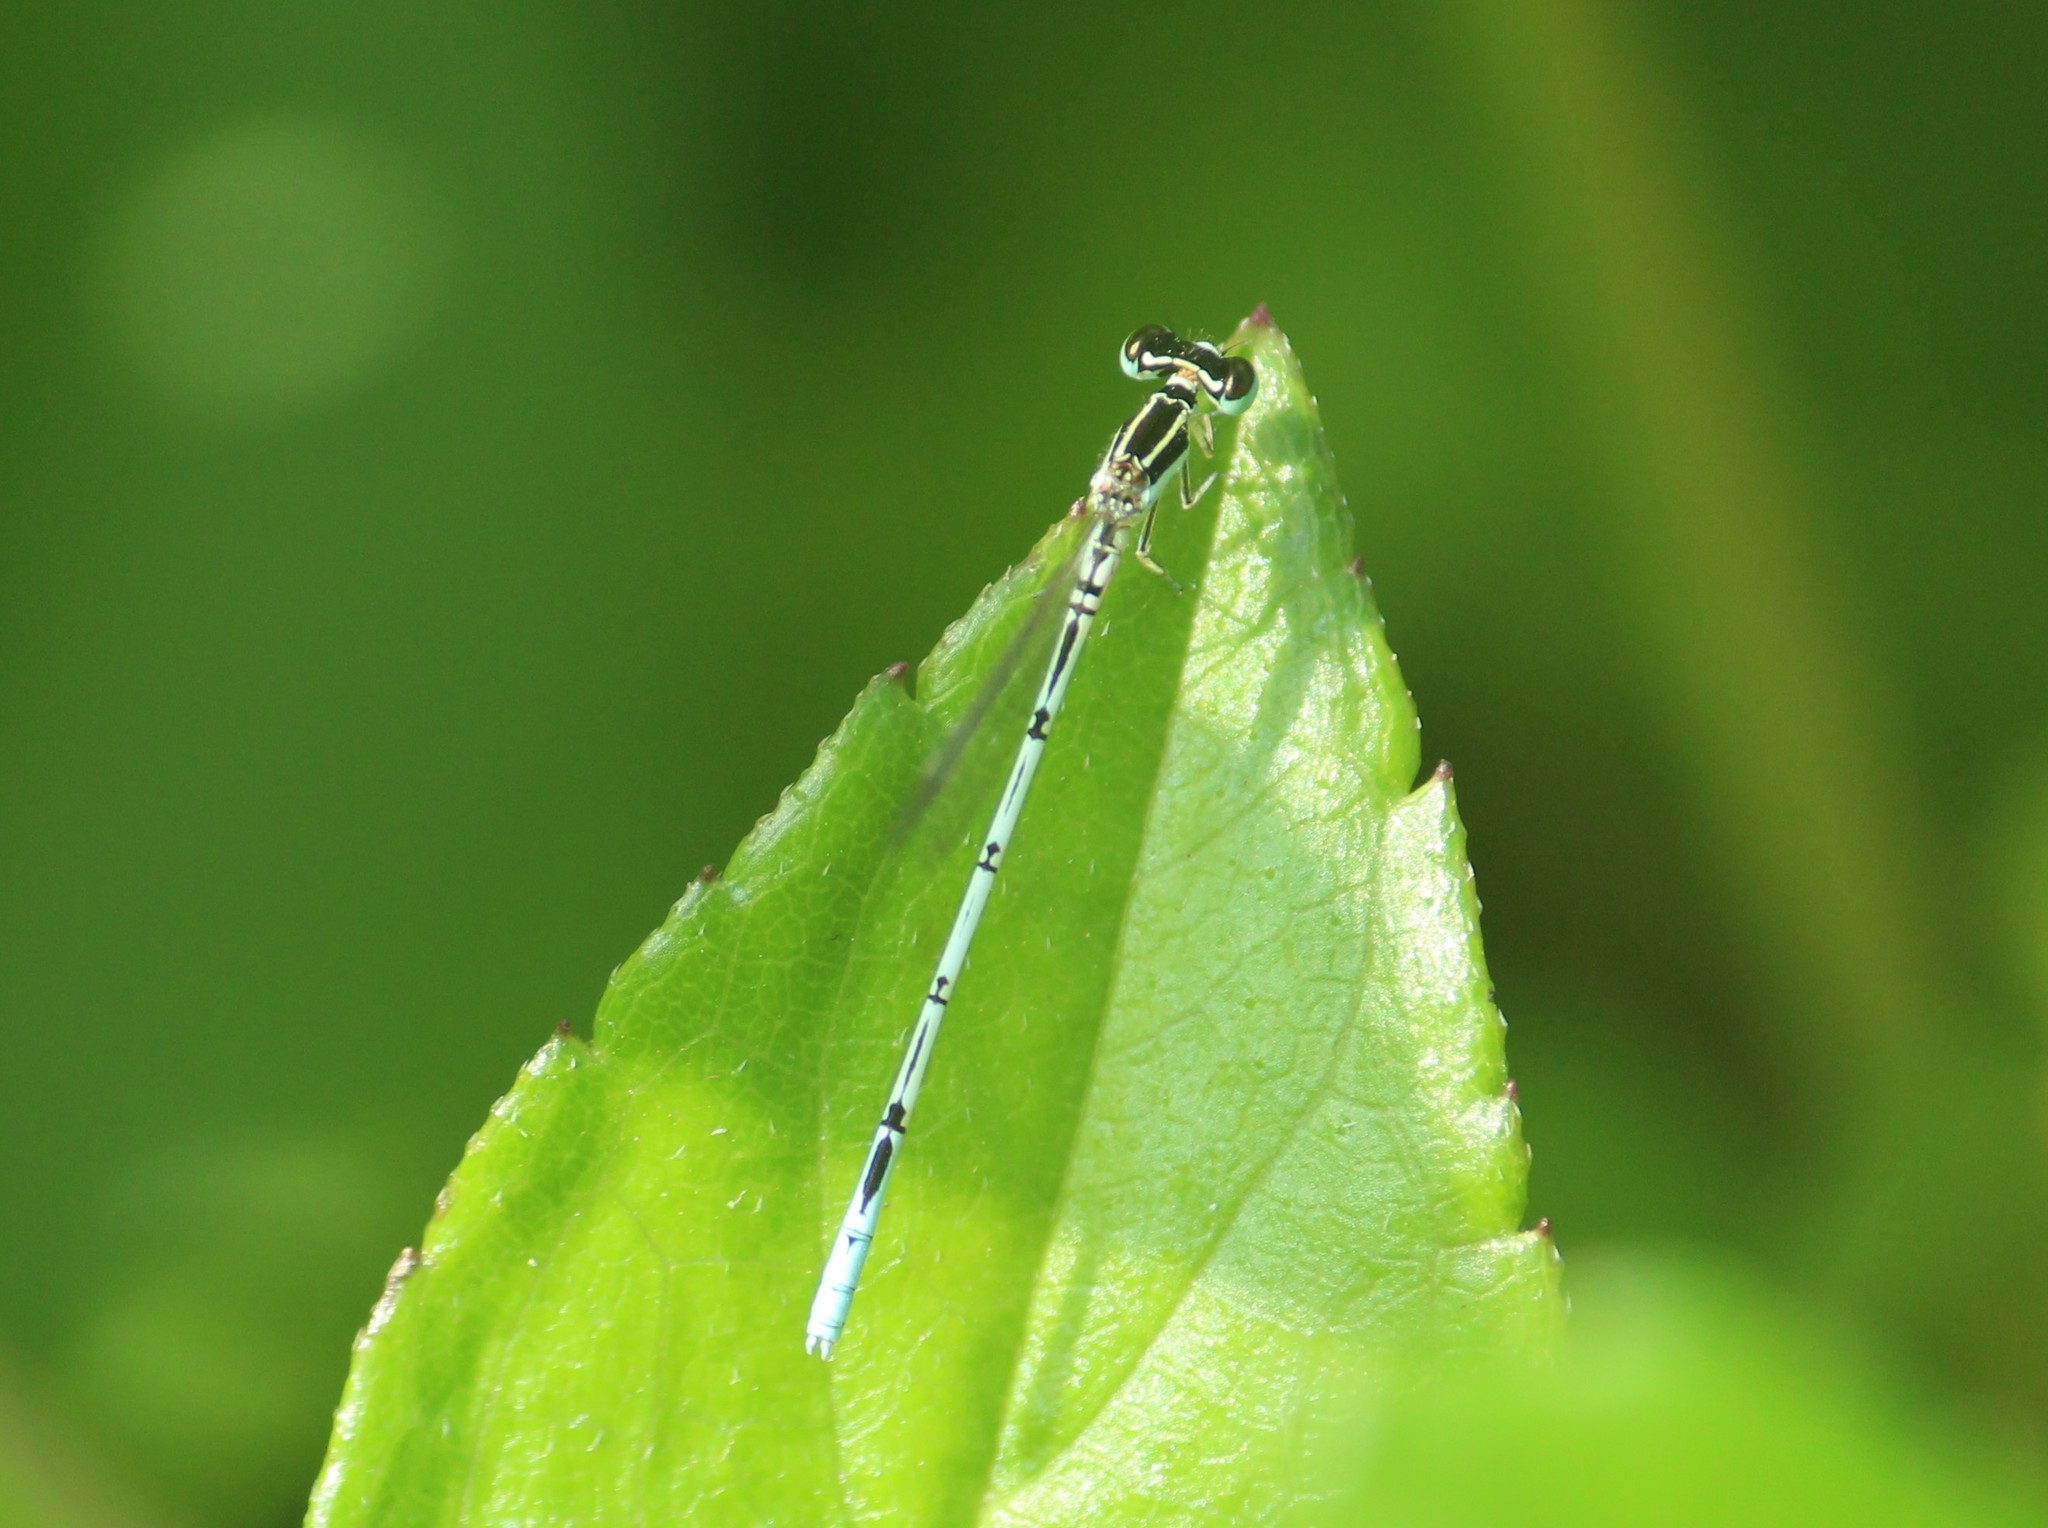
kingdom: Animalia
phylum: Arthropoda
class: Insecta
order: Odonata
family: Coenagrionidae
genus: Agriocnemis
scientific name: Agriocnemis pieris
